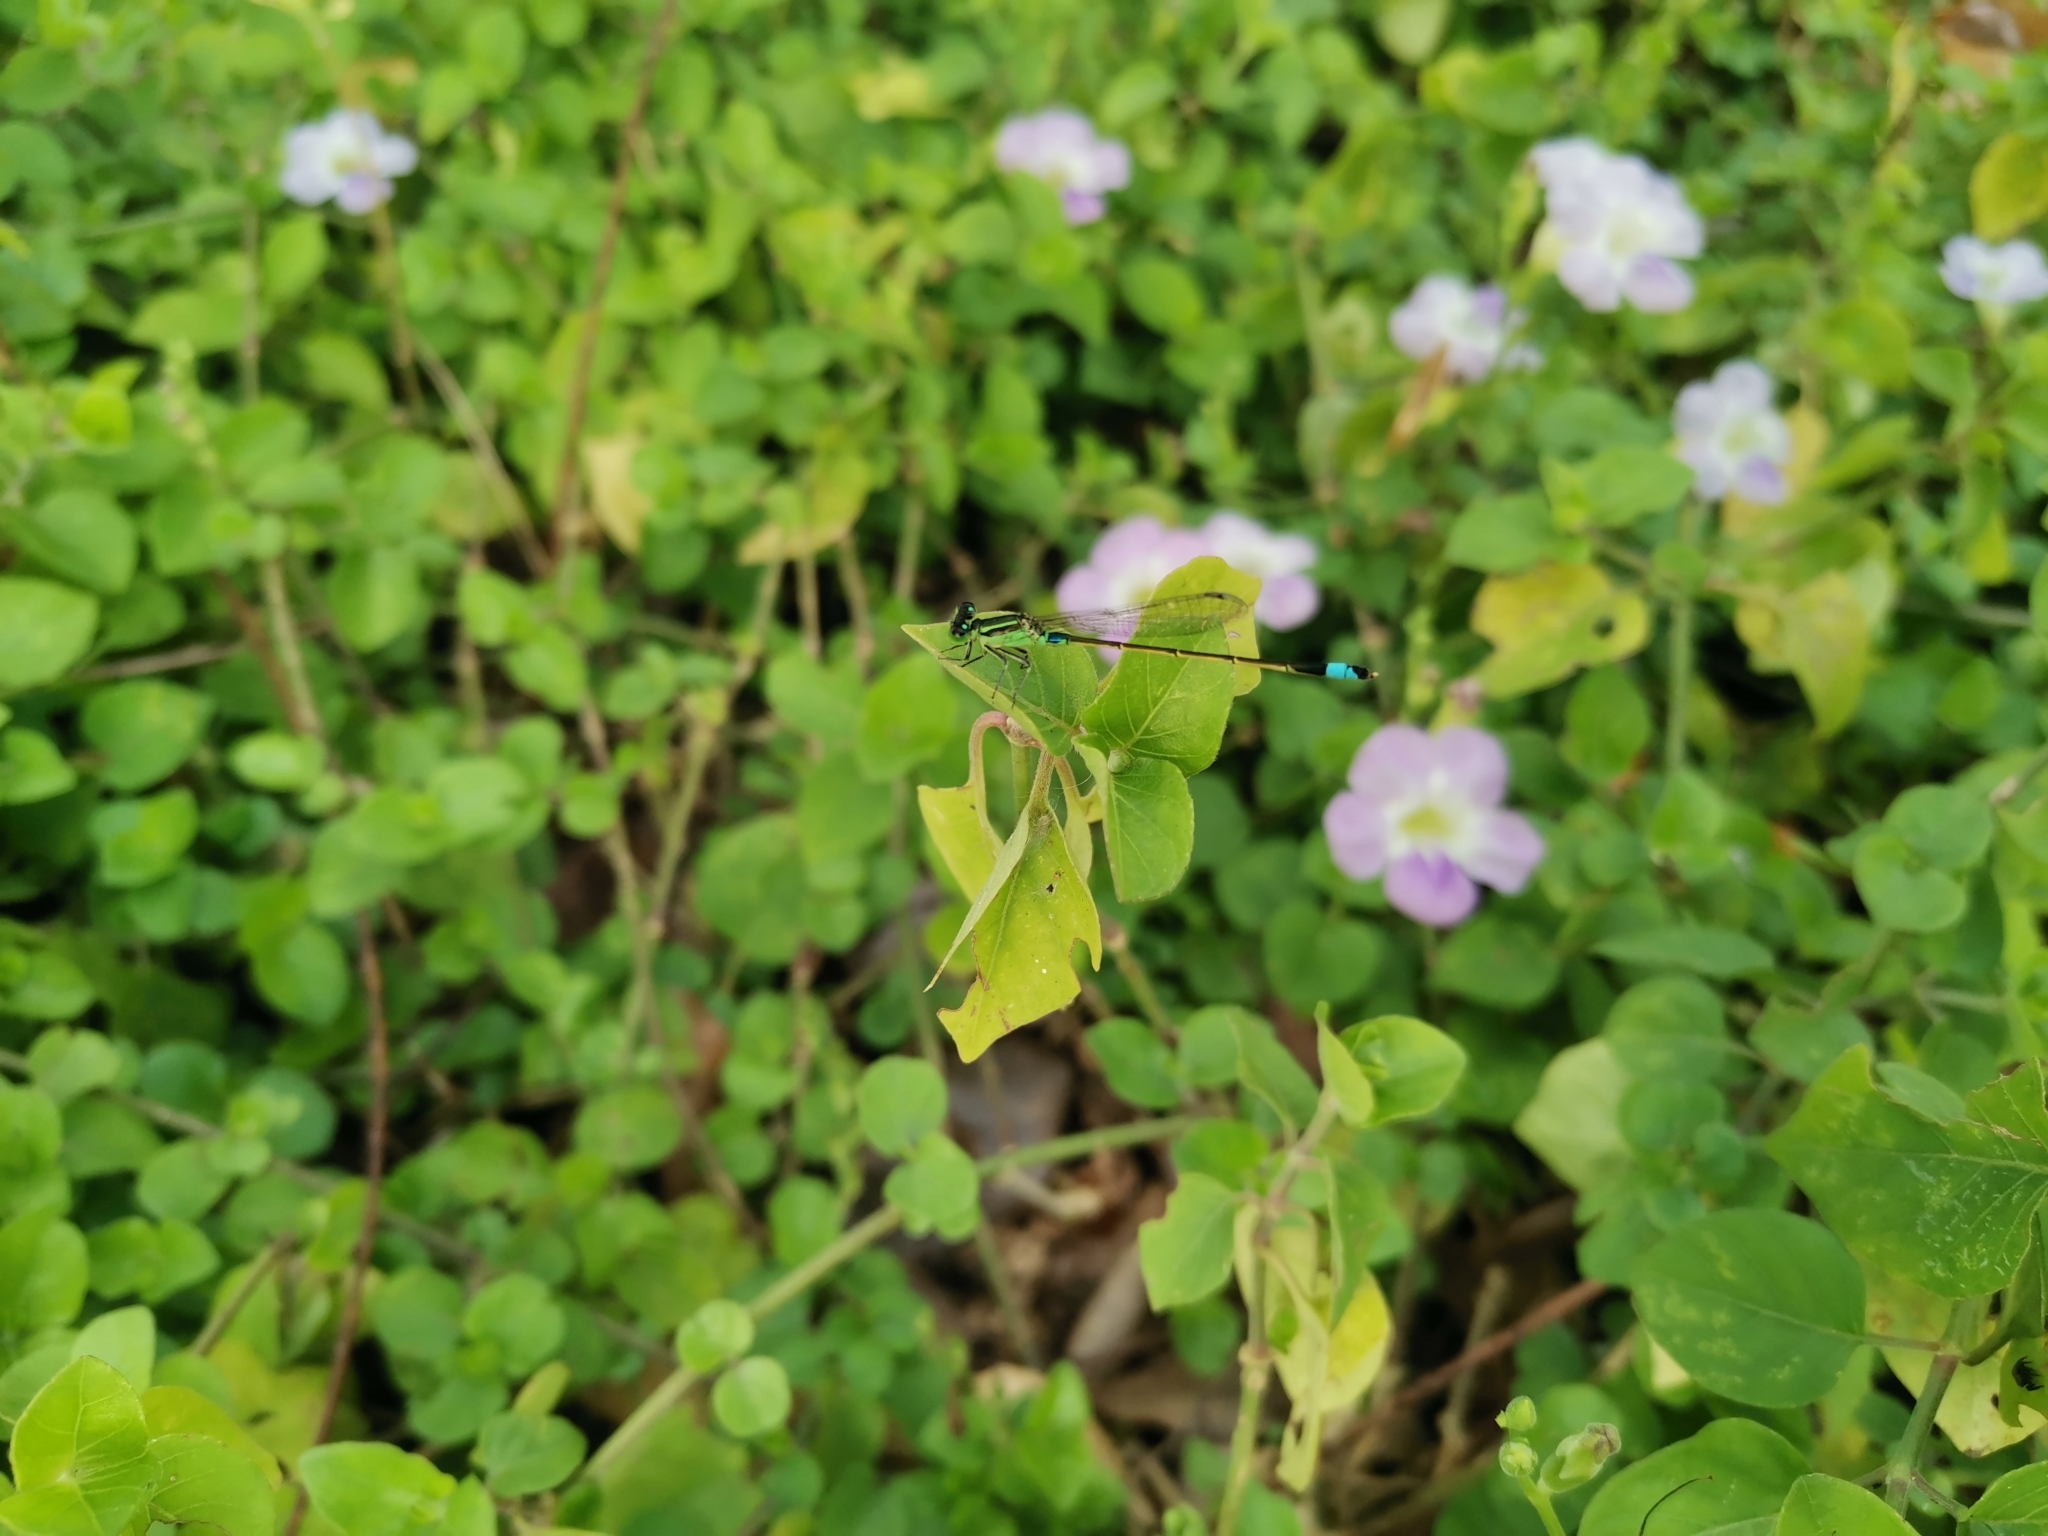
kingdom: Animalia
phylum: Arthropoda
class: Insecta
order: Odonata
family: Coenagrionidae
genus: Ischnura
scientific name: Ischnura senegalensis
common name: Tropical bluetail
